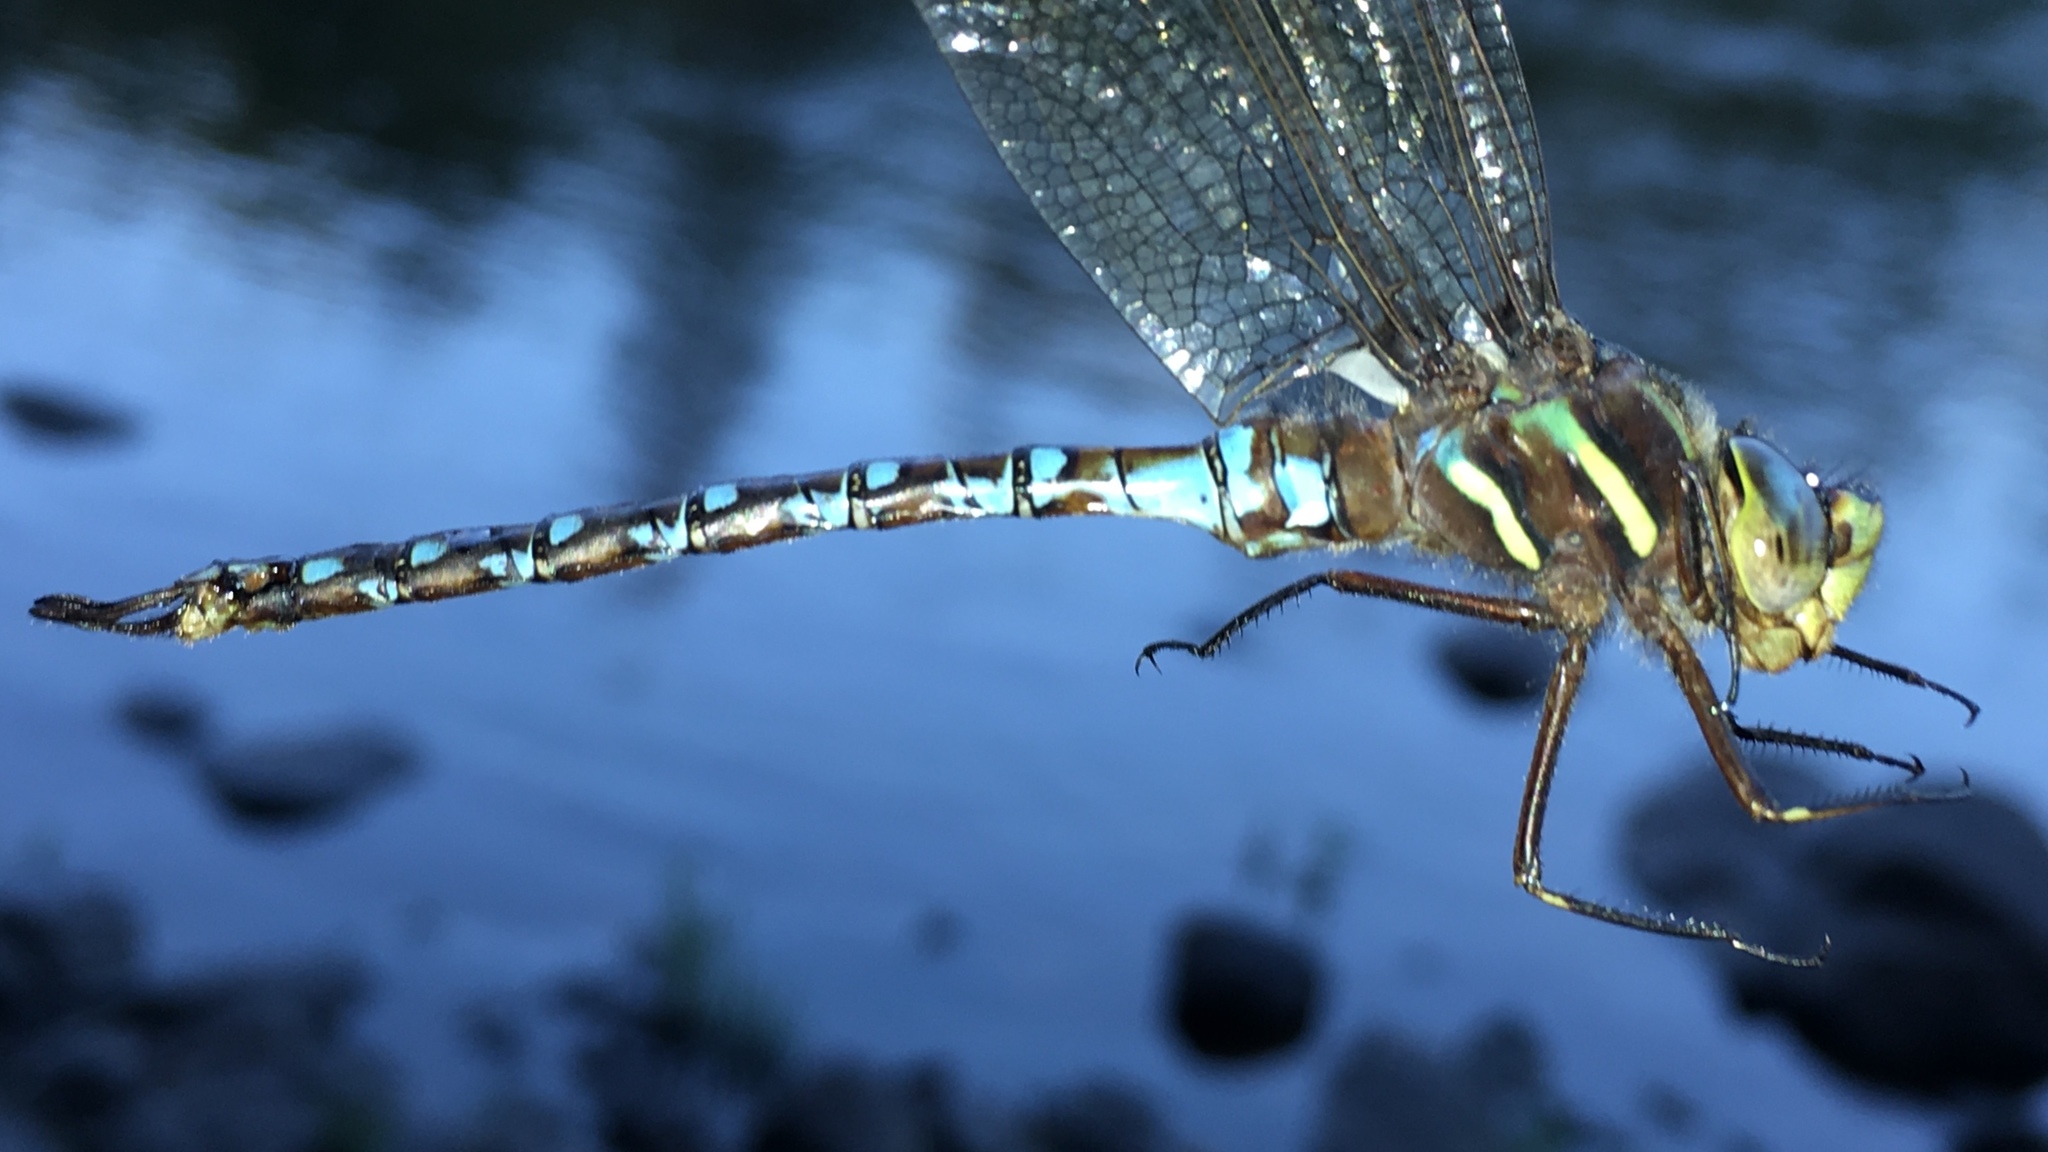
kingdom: Animalia
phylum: Arthropoda
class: Insecta
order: Odonata
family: Aeshnidae
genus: Basiaeschna
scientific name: Basiaeschna janata
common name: Springtime darner
